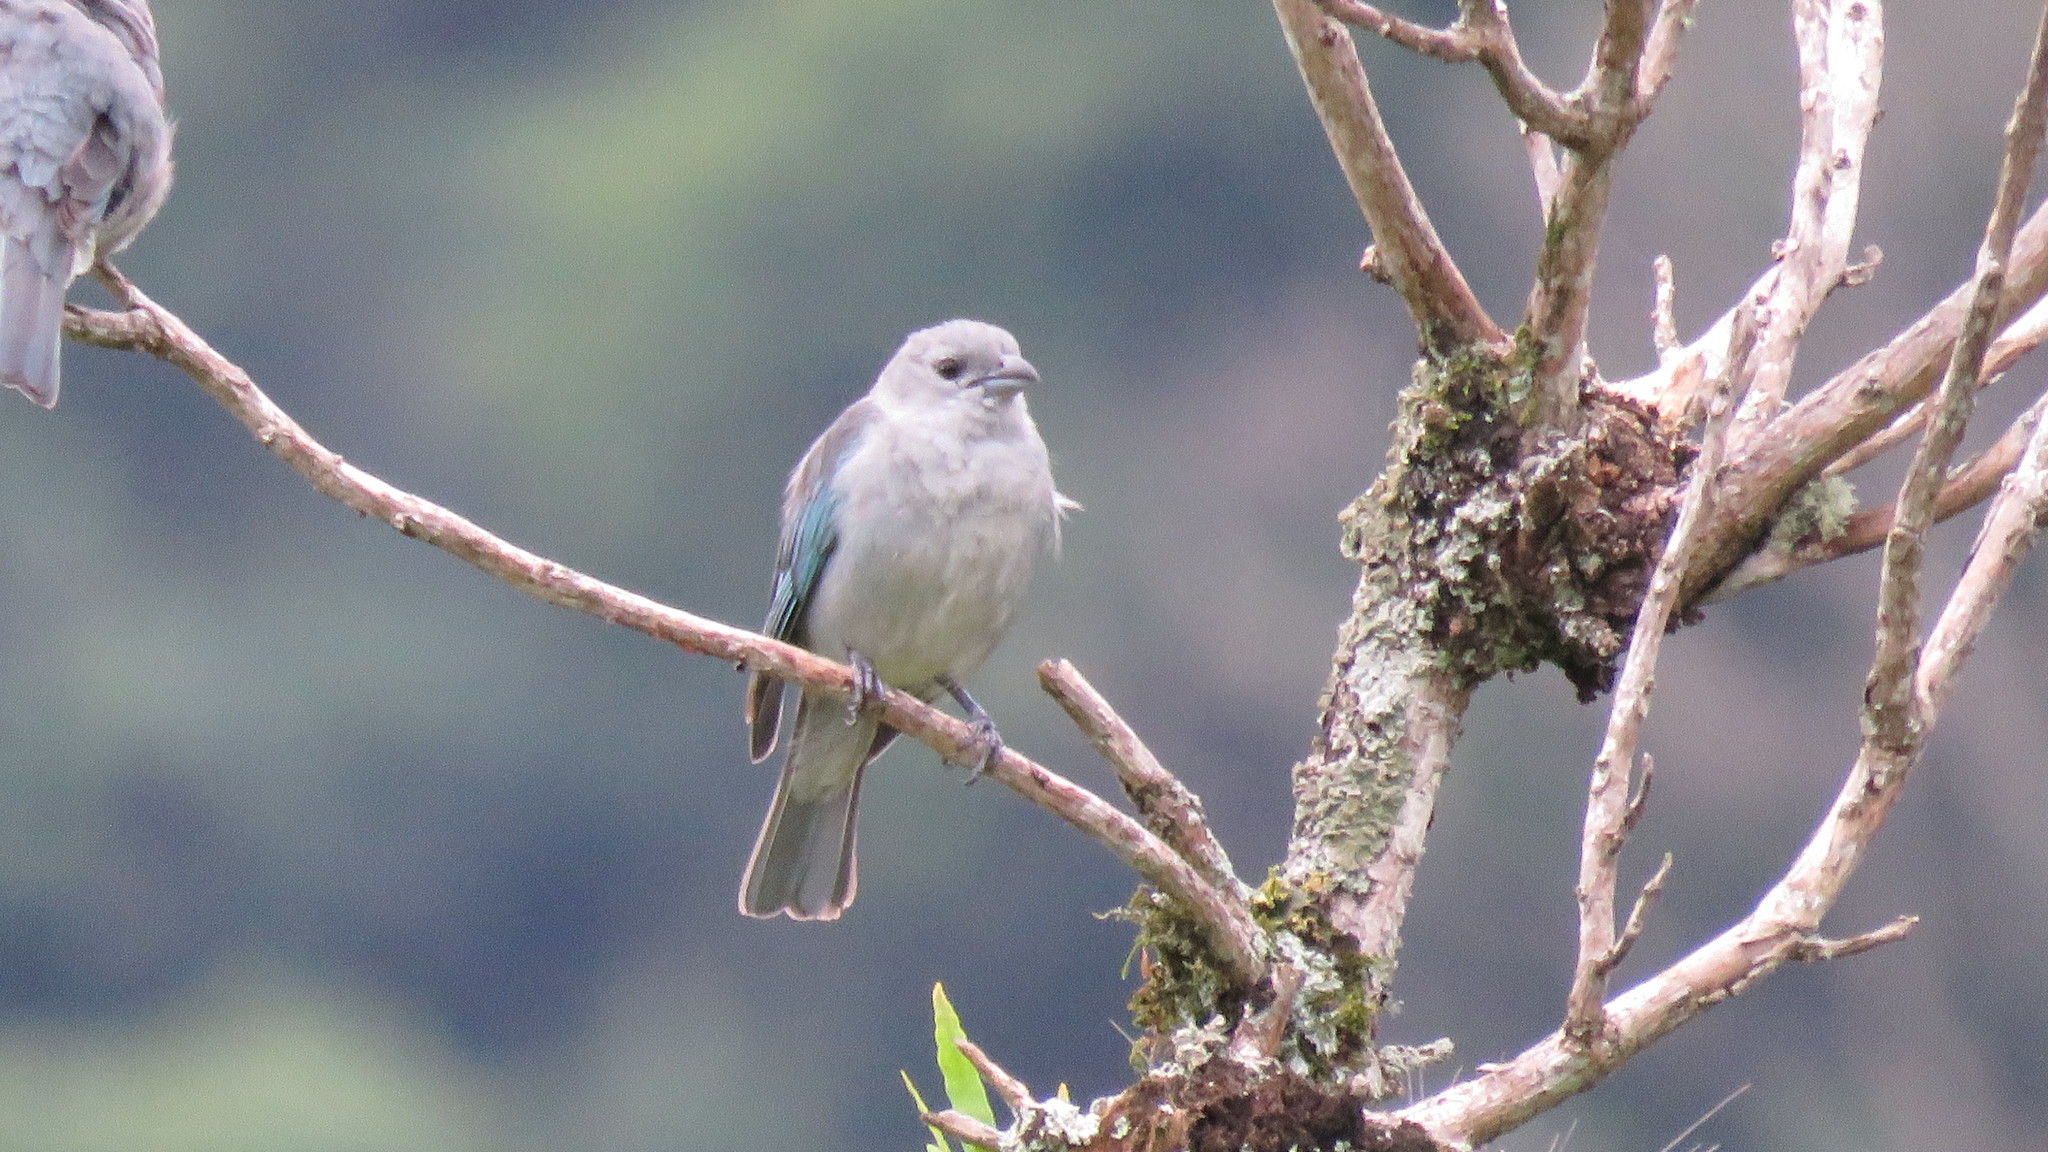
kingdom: Animalia
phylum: Chordata
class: Aves
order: Passeriformes
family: Thraupidae
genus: Thraupis
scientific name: Thraupis sayaca
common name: Sayaca tanager
